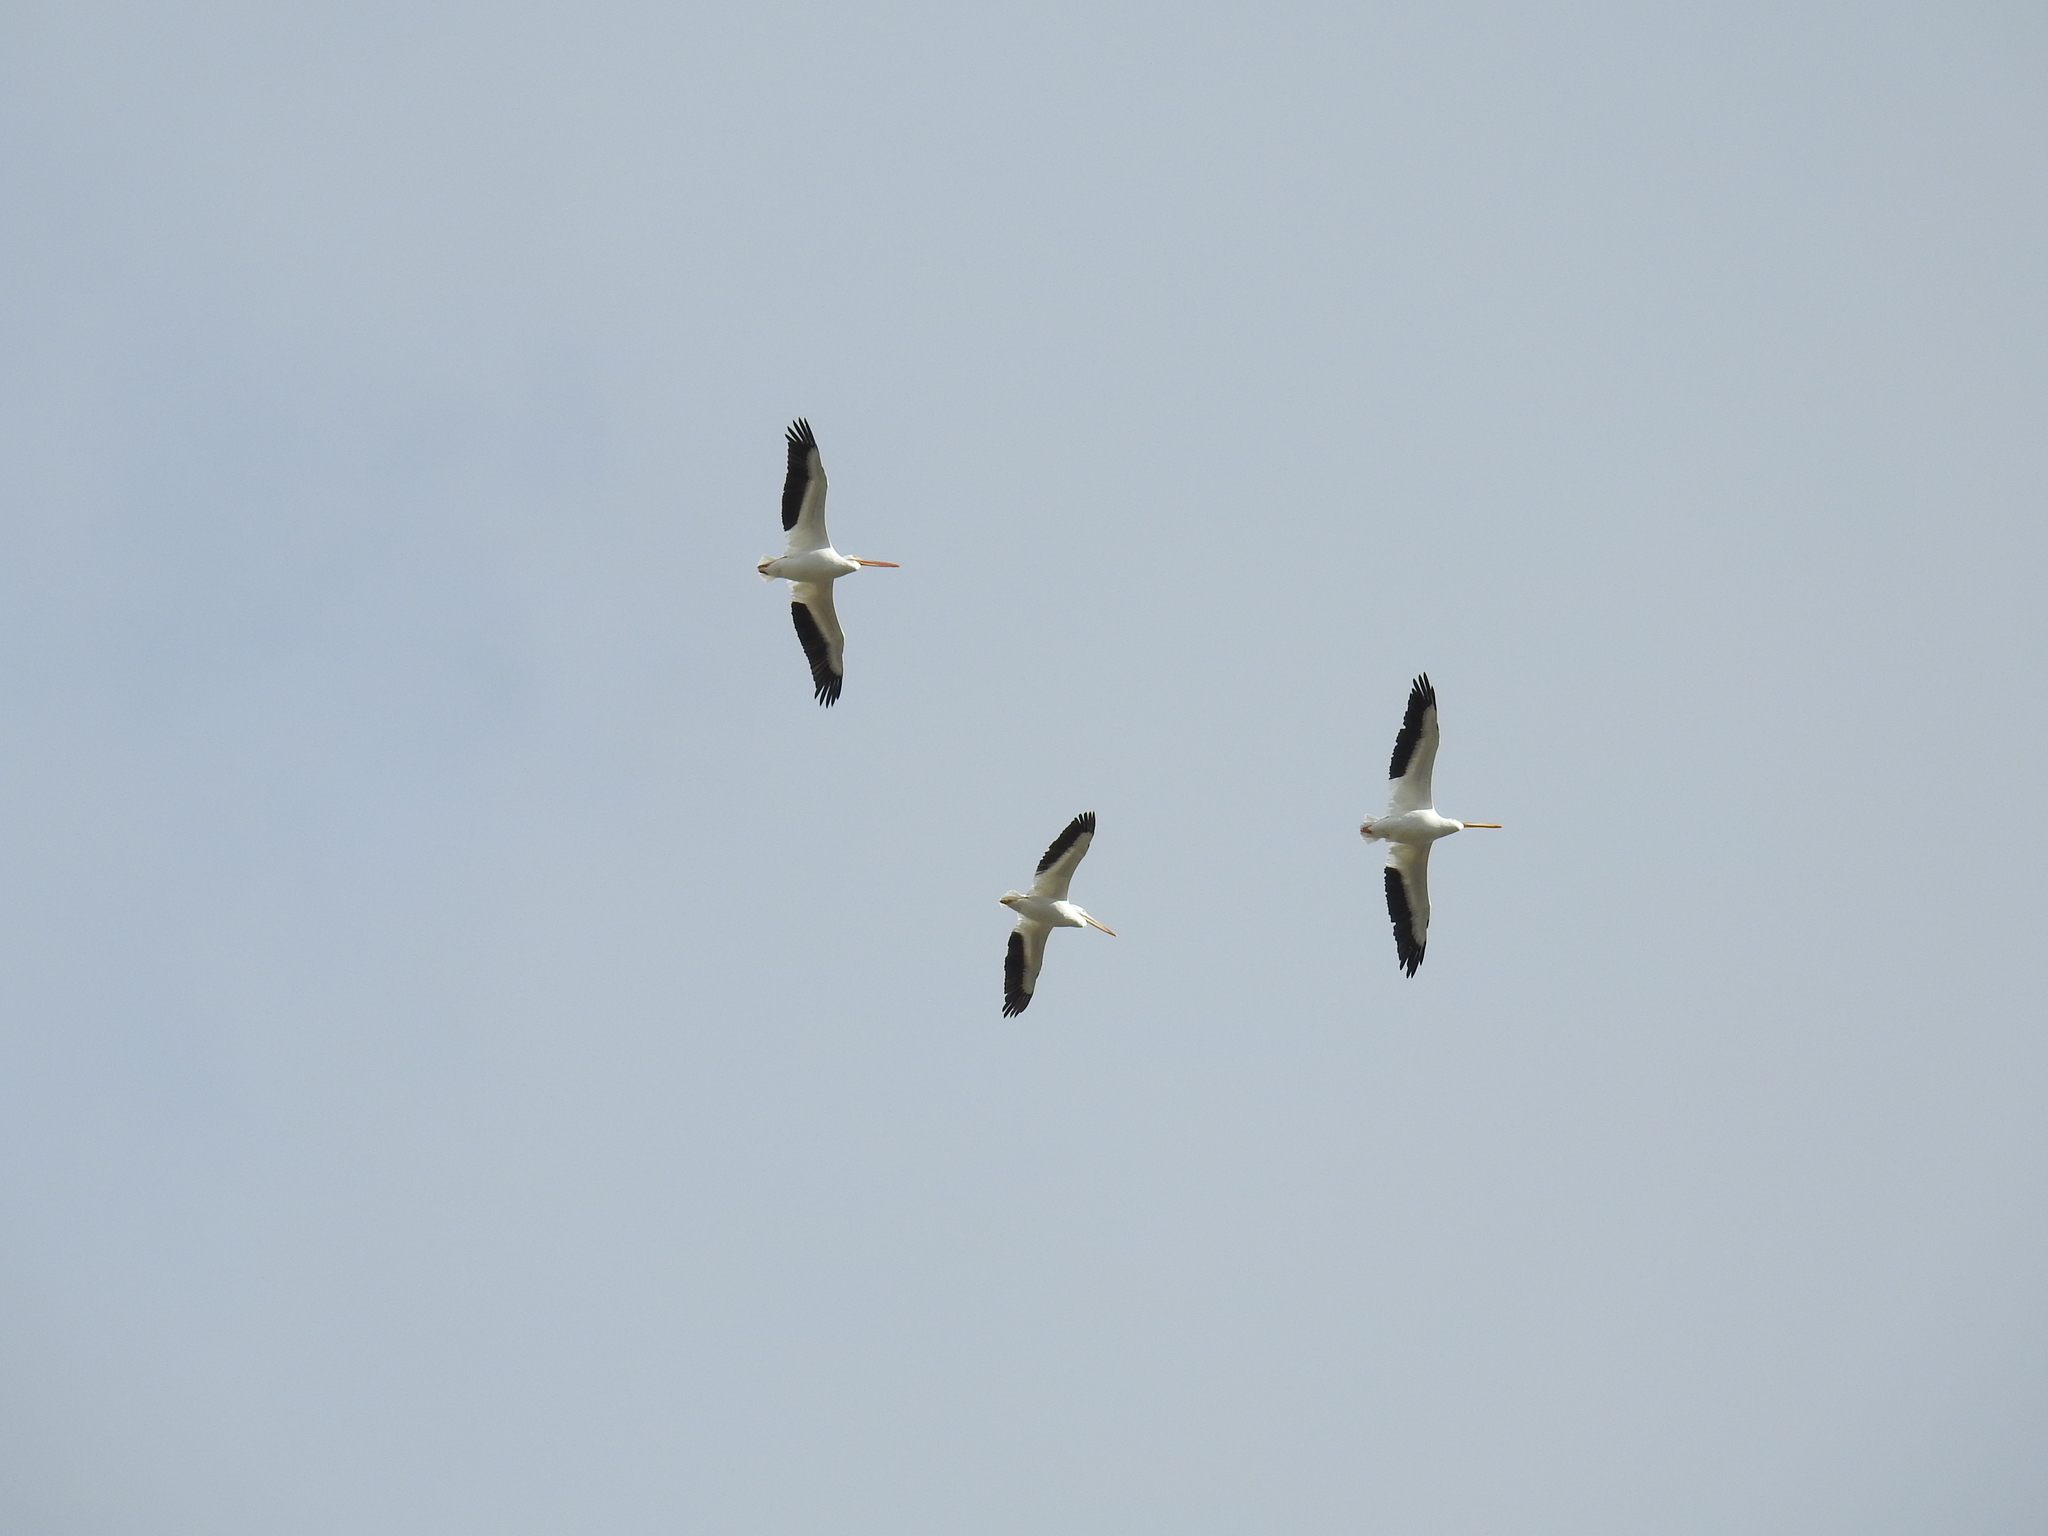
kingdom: Animalia
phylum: Chordata
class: Aves
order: Pelecaniformes
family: Pelecanidae
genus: Pelecanus
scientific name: Pelecanus erythrorhynchos
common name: American white pelican
